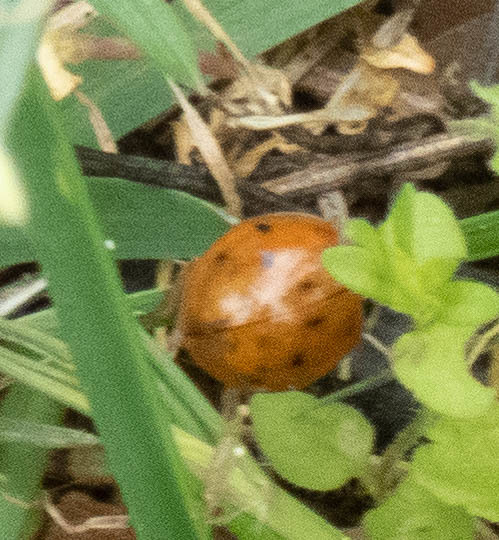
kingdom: Animalia
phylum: Arthropoda
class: Insecta
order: Coleoptera
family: Coccinellidae
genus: Harmonia
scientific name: Harmonia axyridis
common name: Harlequin ladybird
